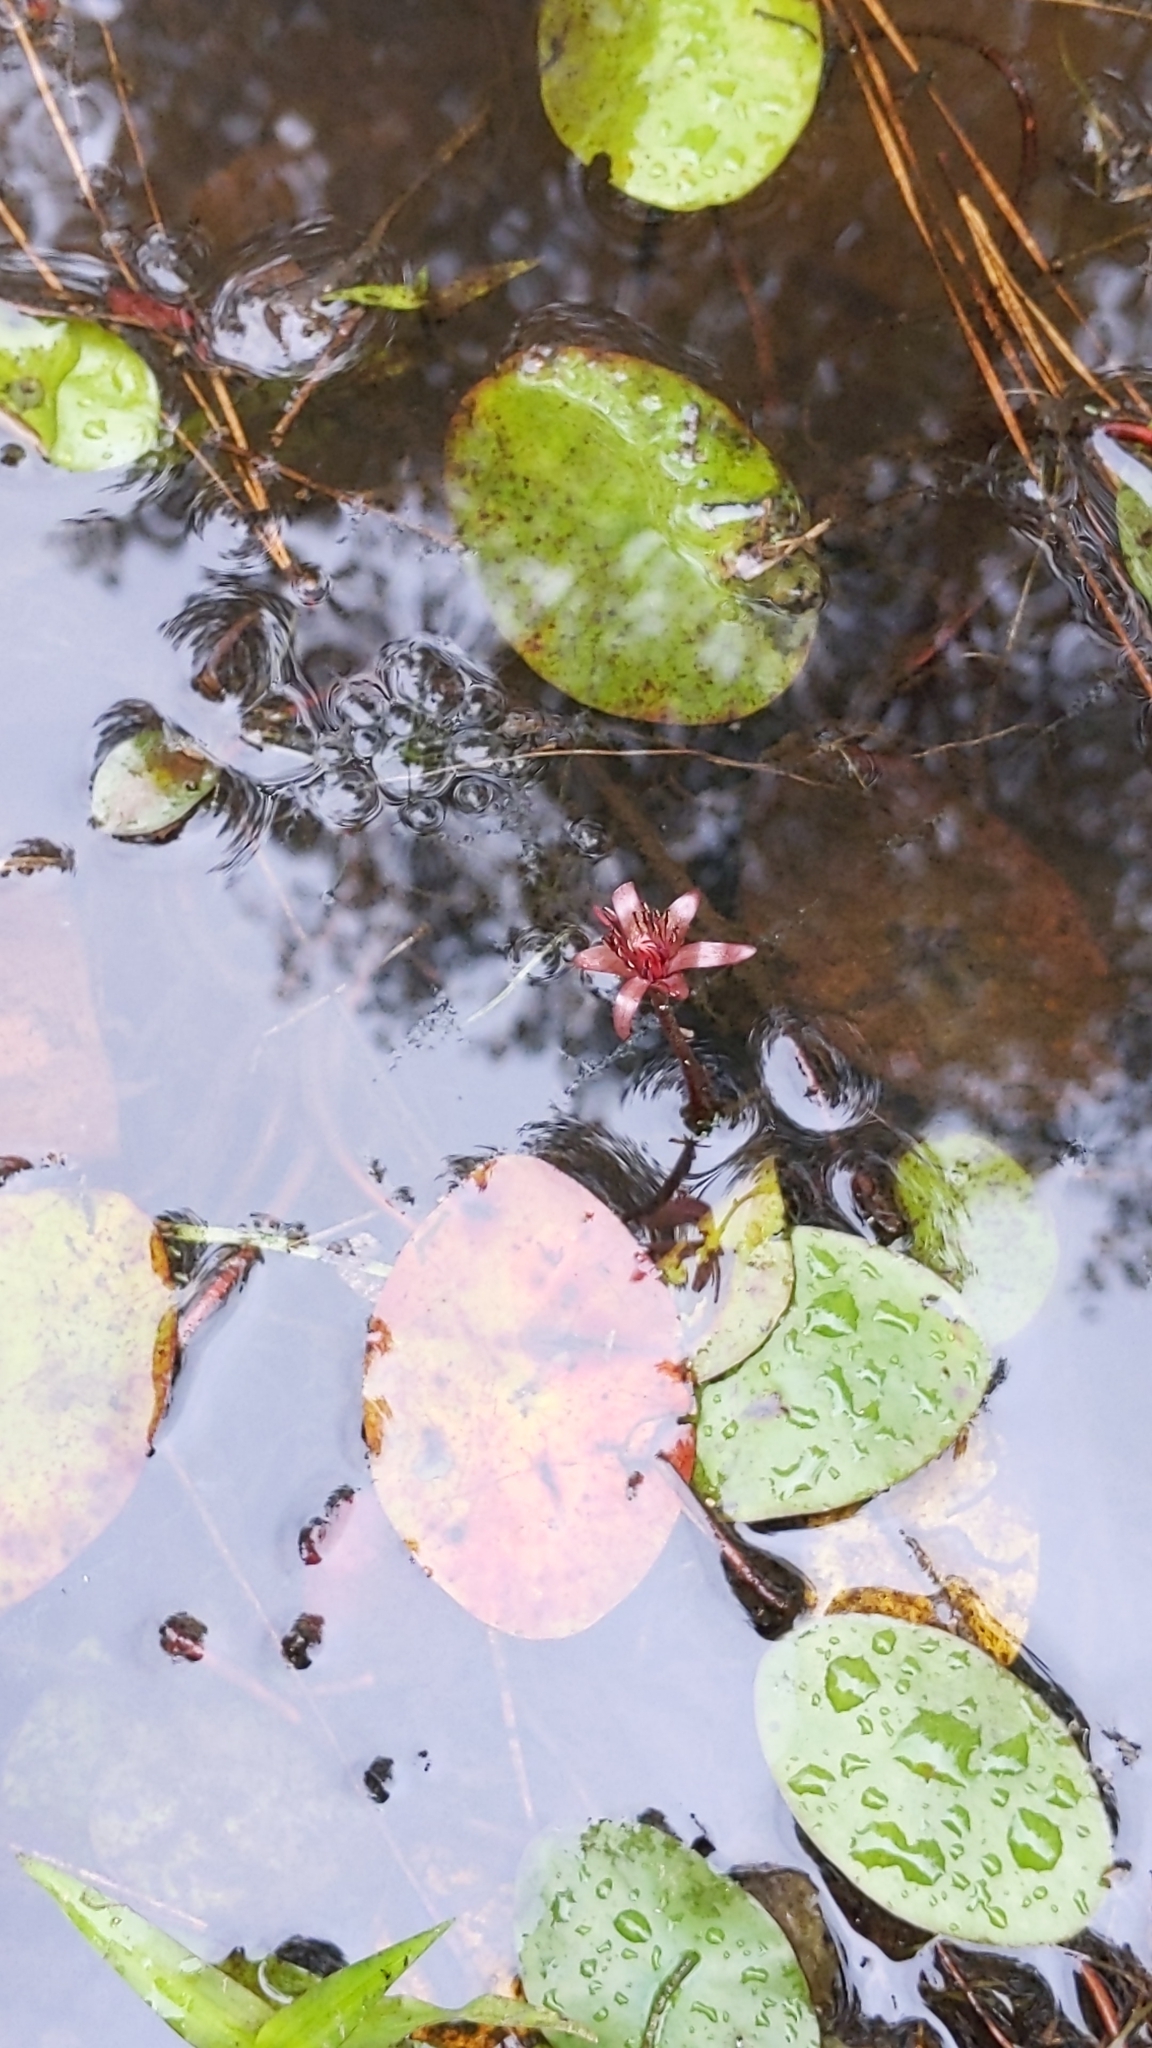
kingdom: Plantae
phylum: Tracheophyta
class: Magnoliopsida
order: Nymphaeales
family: Cabombaceae
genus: Brasenia
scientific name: Brasenia schreberi
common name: Water-shield
